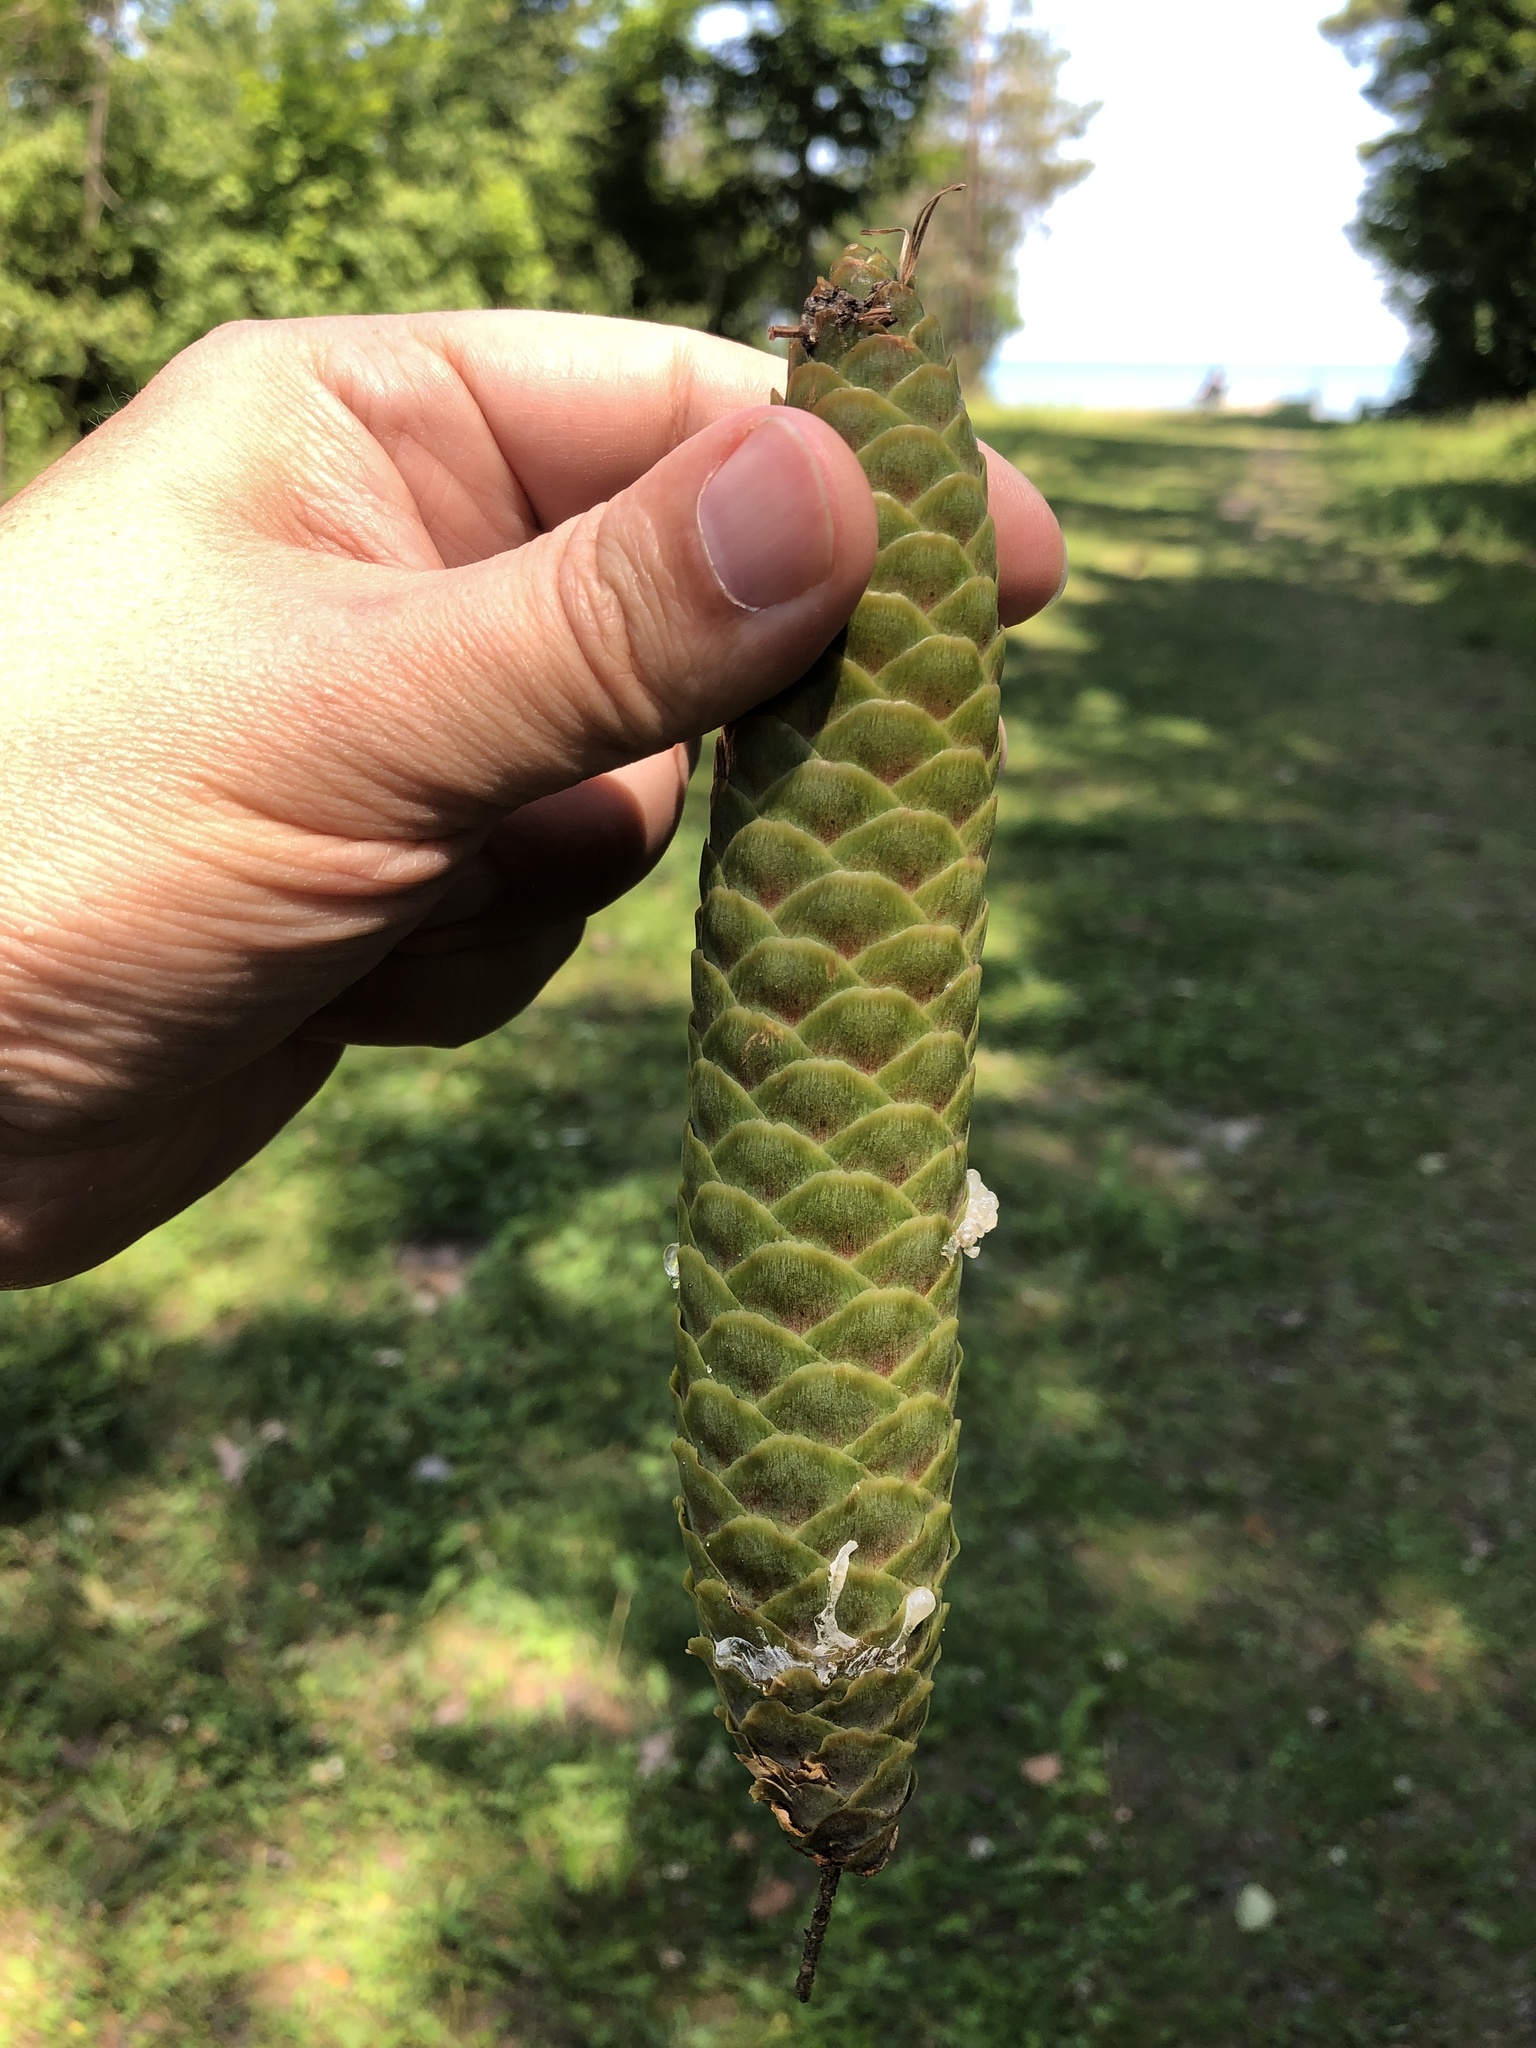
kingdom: Plantae
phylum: Tracheophyta
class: Pinopsida
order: Pinales
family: Pinaceae
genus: Picea
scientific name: Picea abies
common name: Norway spruce
